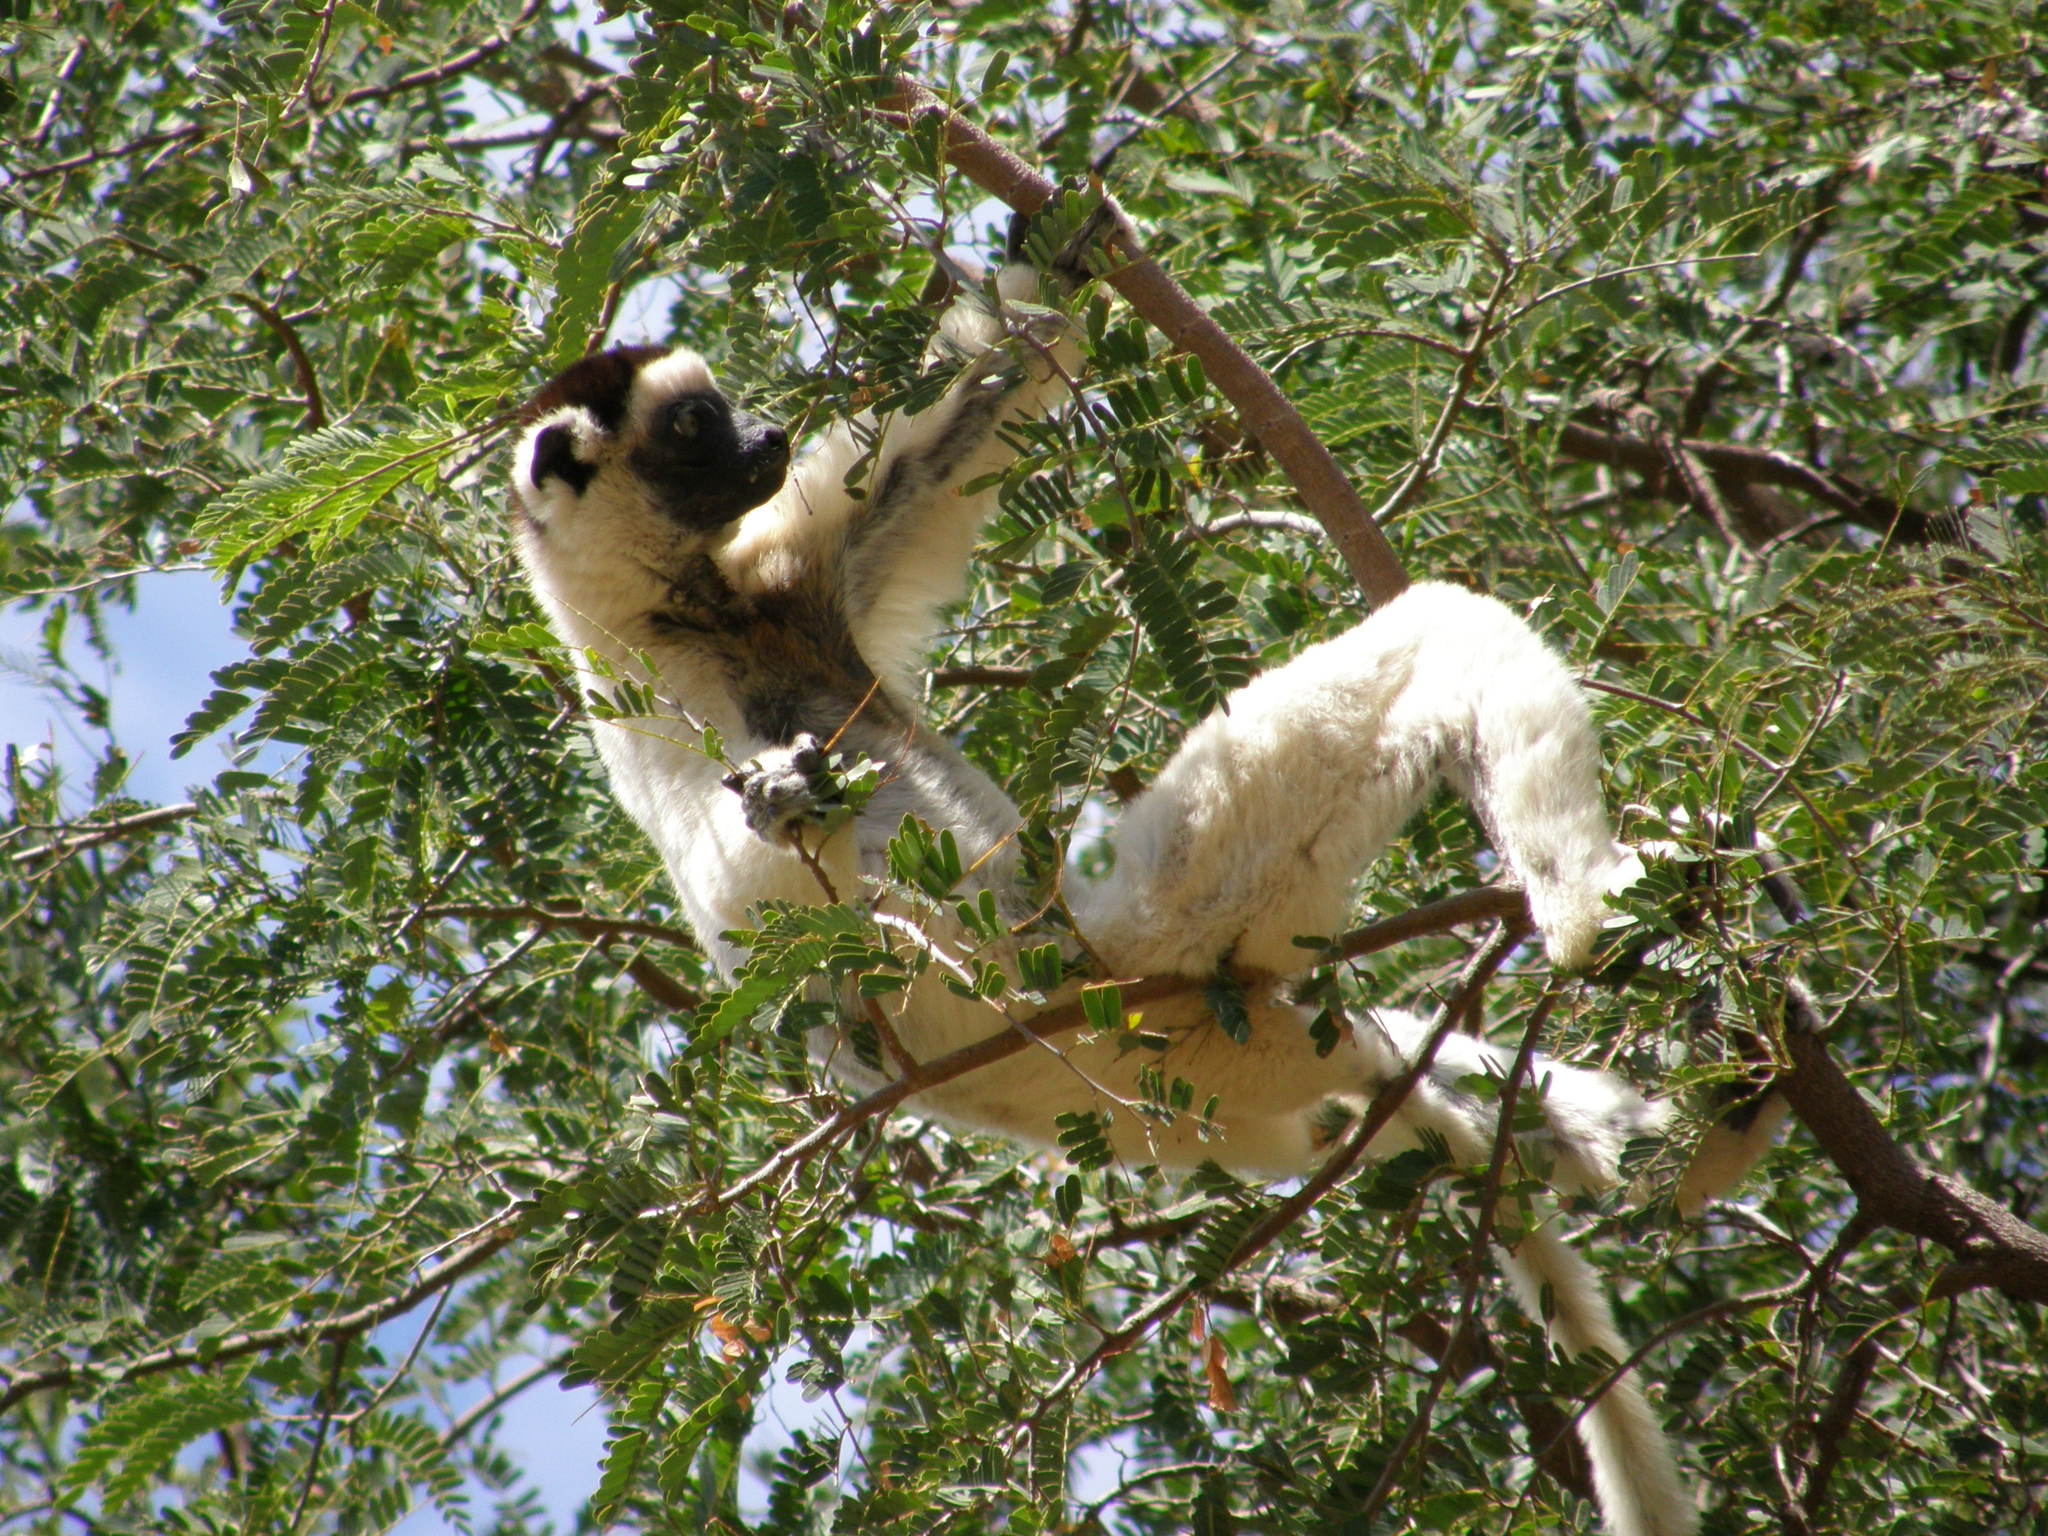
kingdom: Animalia
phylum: Chordata
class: Mammalia
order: Primates
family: Indriidae
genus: Propithecus
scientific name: Propithecus verreauxi
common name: Verreaux's sifaka
